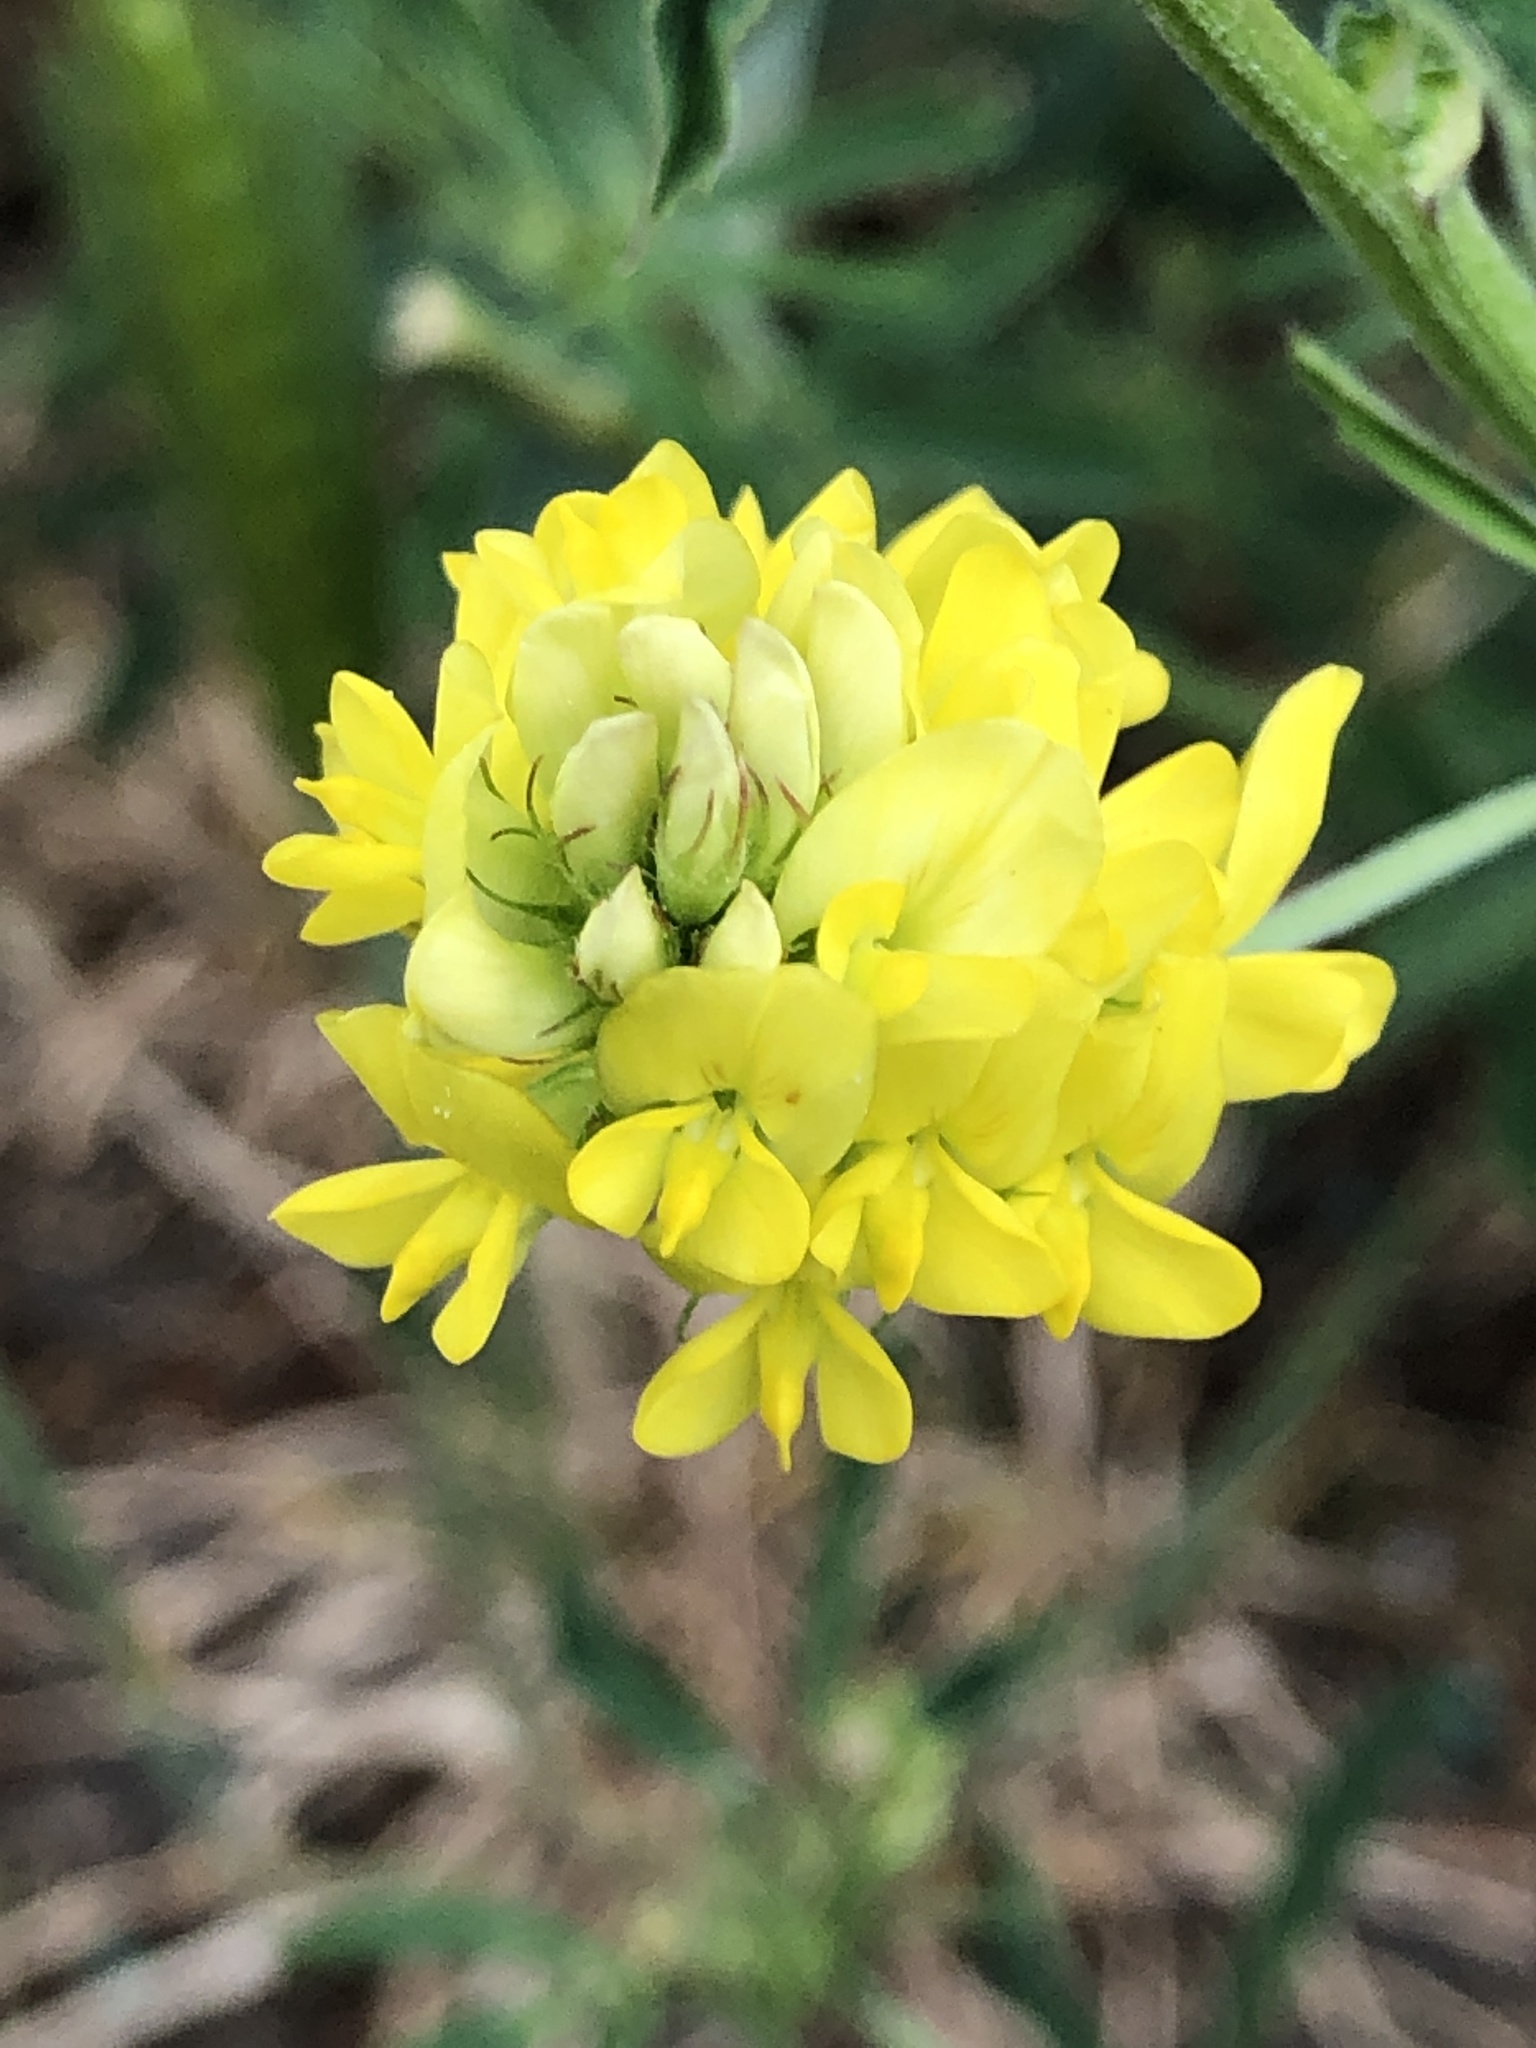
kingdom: Plantae
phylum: Tracheophyta
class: Magnoliopsida
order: Fabales
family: Fabaceae
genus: Medicago
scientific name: Medicago falcata
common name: Sickle medick
